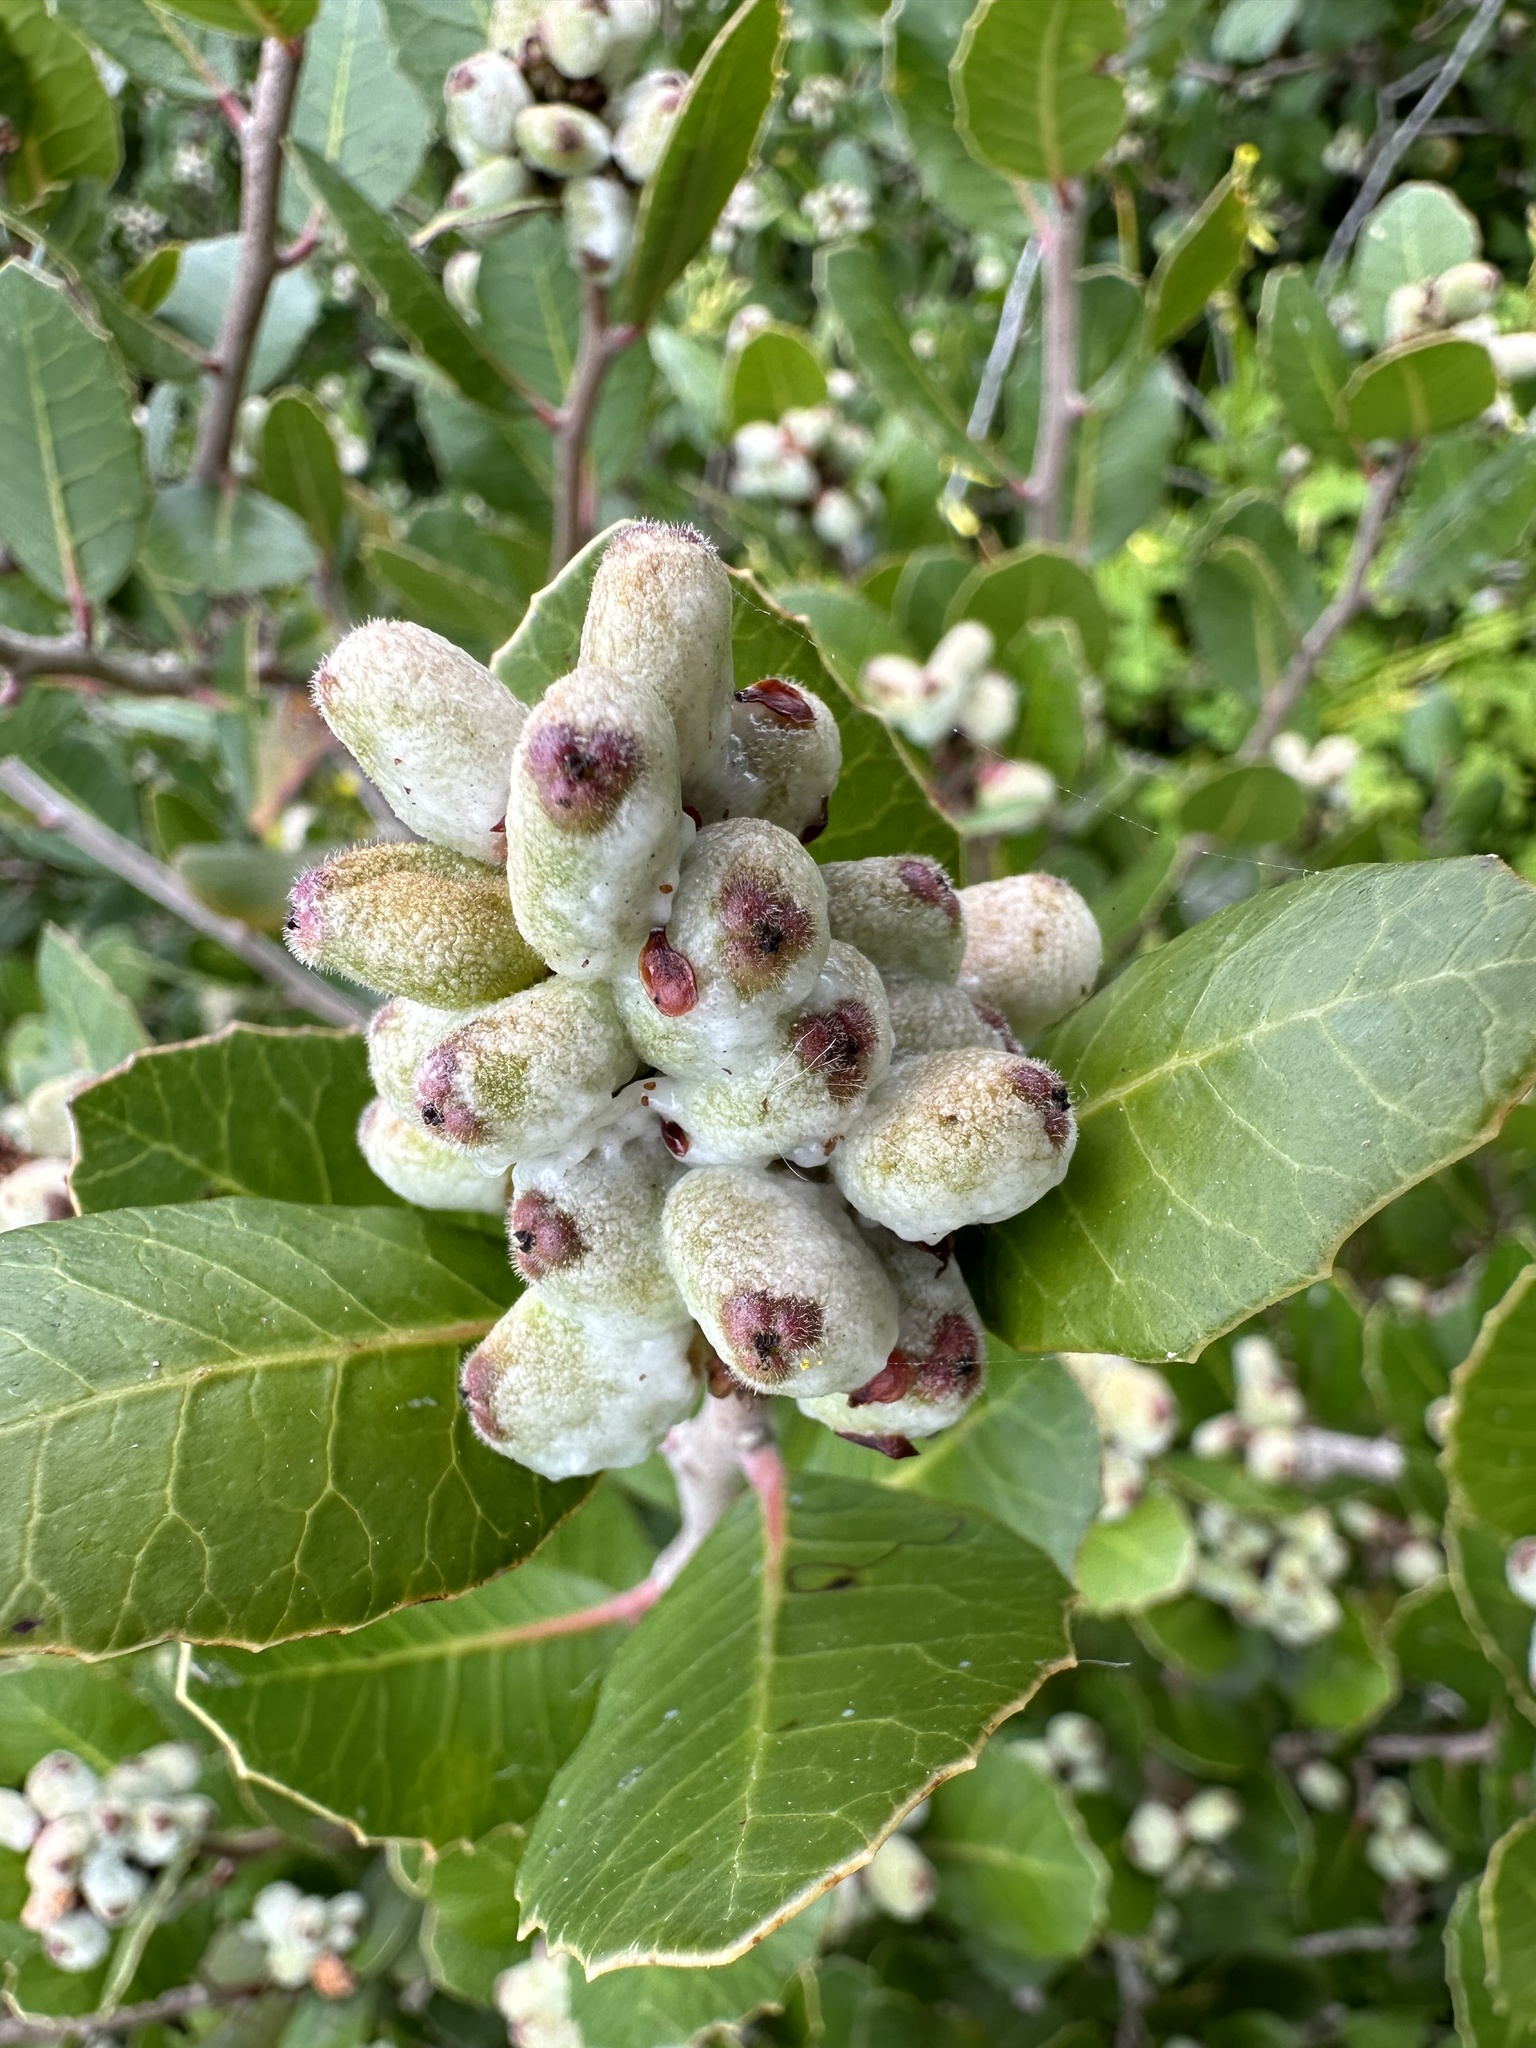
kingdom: Plantae
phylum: Tracheophyta
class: Magnoliopsida
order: Sapindales
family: Anacardiaceae
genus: Rhus
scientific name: Rhus integrifolia
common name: Lemonade sumac
